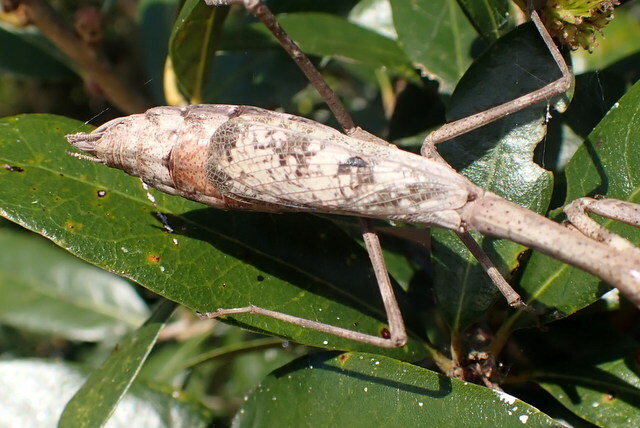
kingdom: Animalia
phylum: Arthropoda
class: Insecta
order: Mantodea
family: Mantidae
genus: Stagmomantis
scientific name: Stagmomantis carolina
